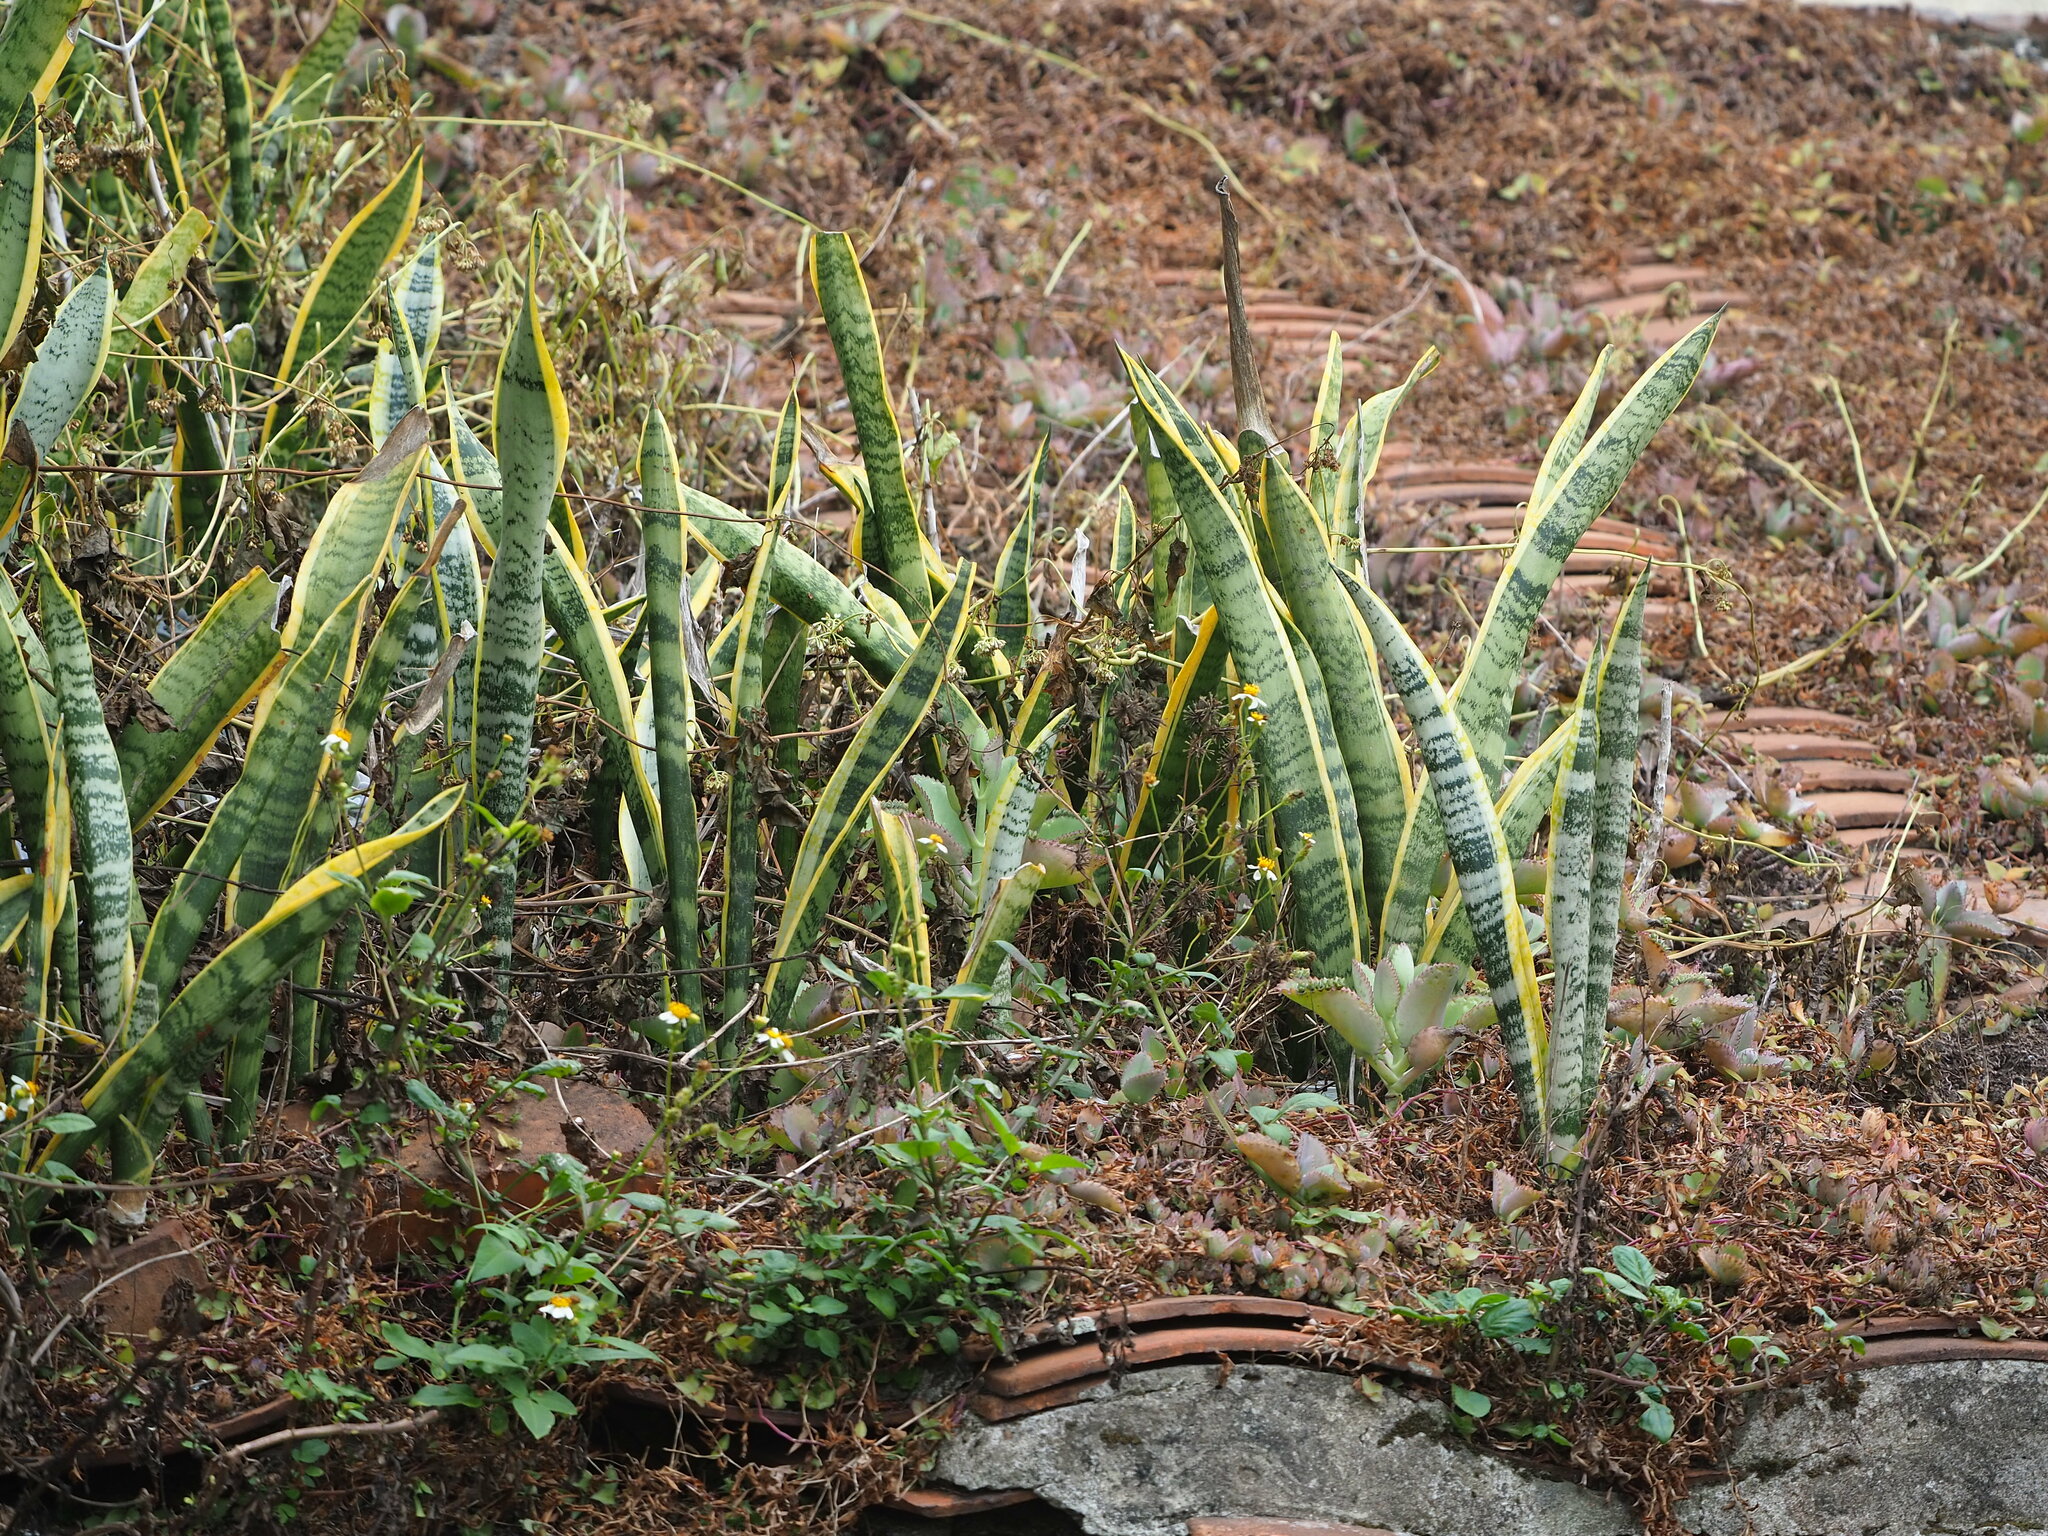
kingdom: Plantae
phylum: Tracheophyta
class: Liliopsida
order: Asparagales
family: Asparagaceae
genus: Dracaena
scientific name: Dracaena trifasciata
